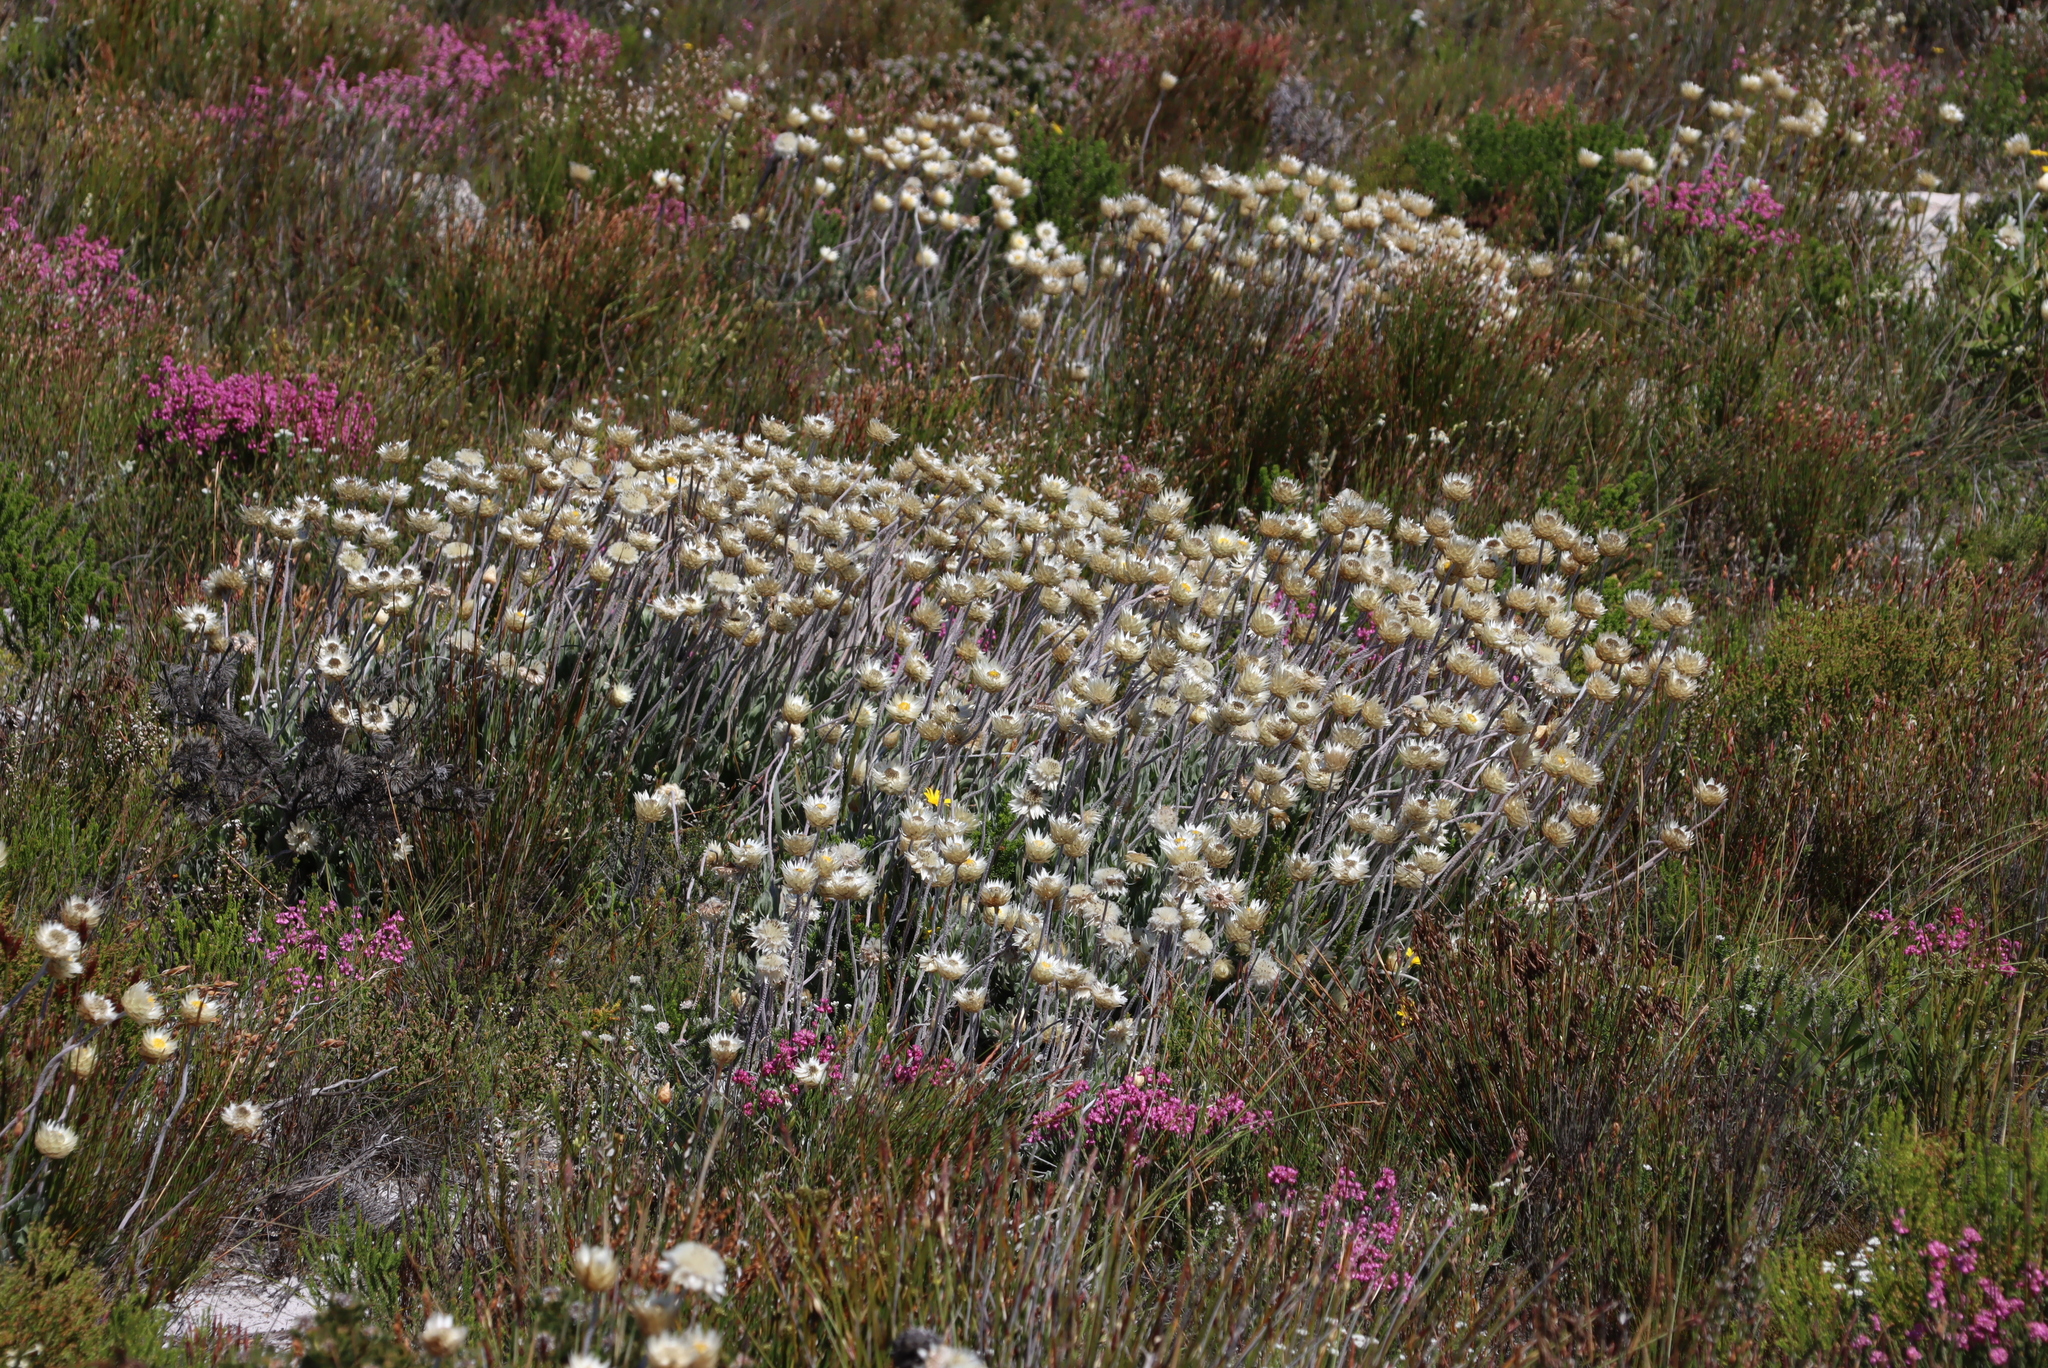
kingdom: Plantae
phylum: Tracheophyta
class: Magnoliopsida
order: Asterales
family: Asteraceae
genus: Syncarpha
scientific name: Syncarpha speciosissima
